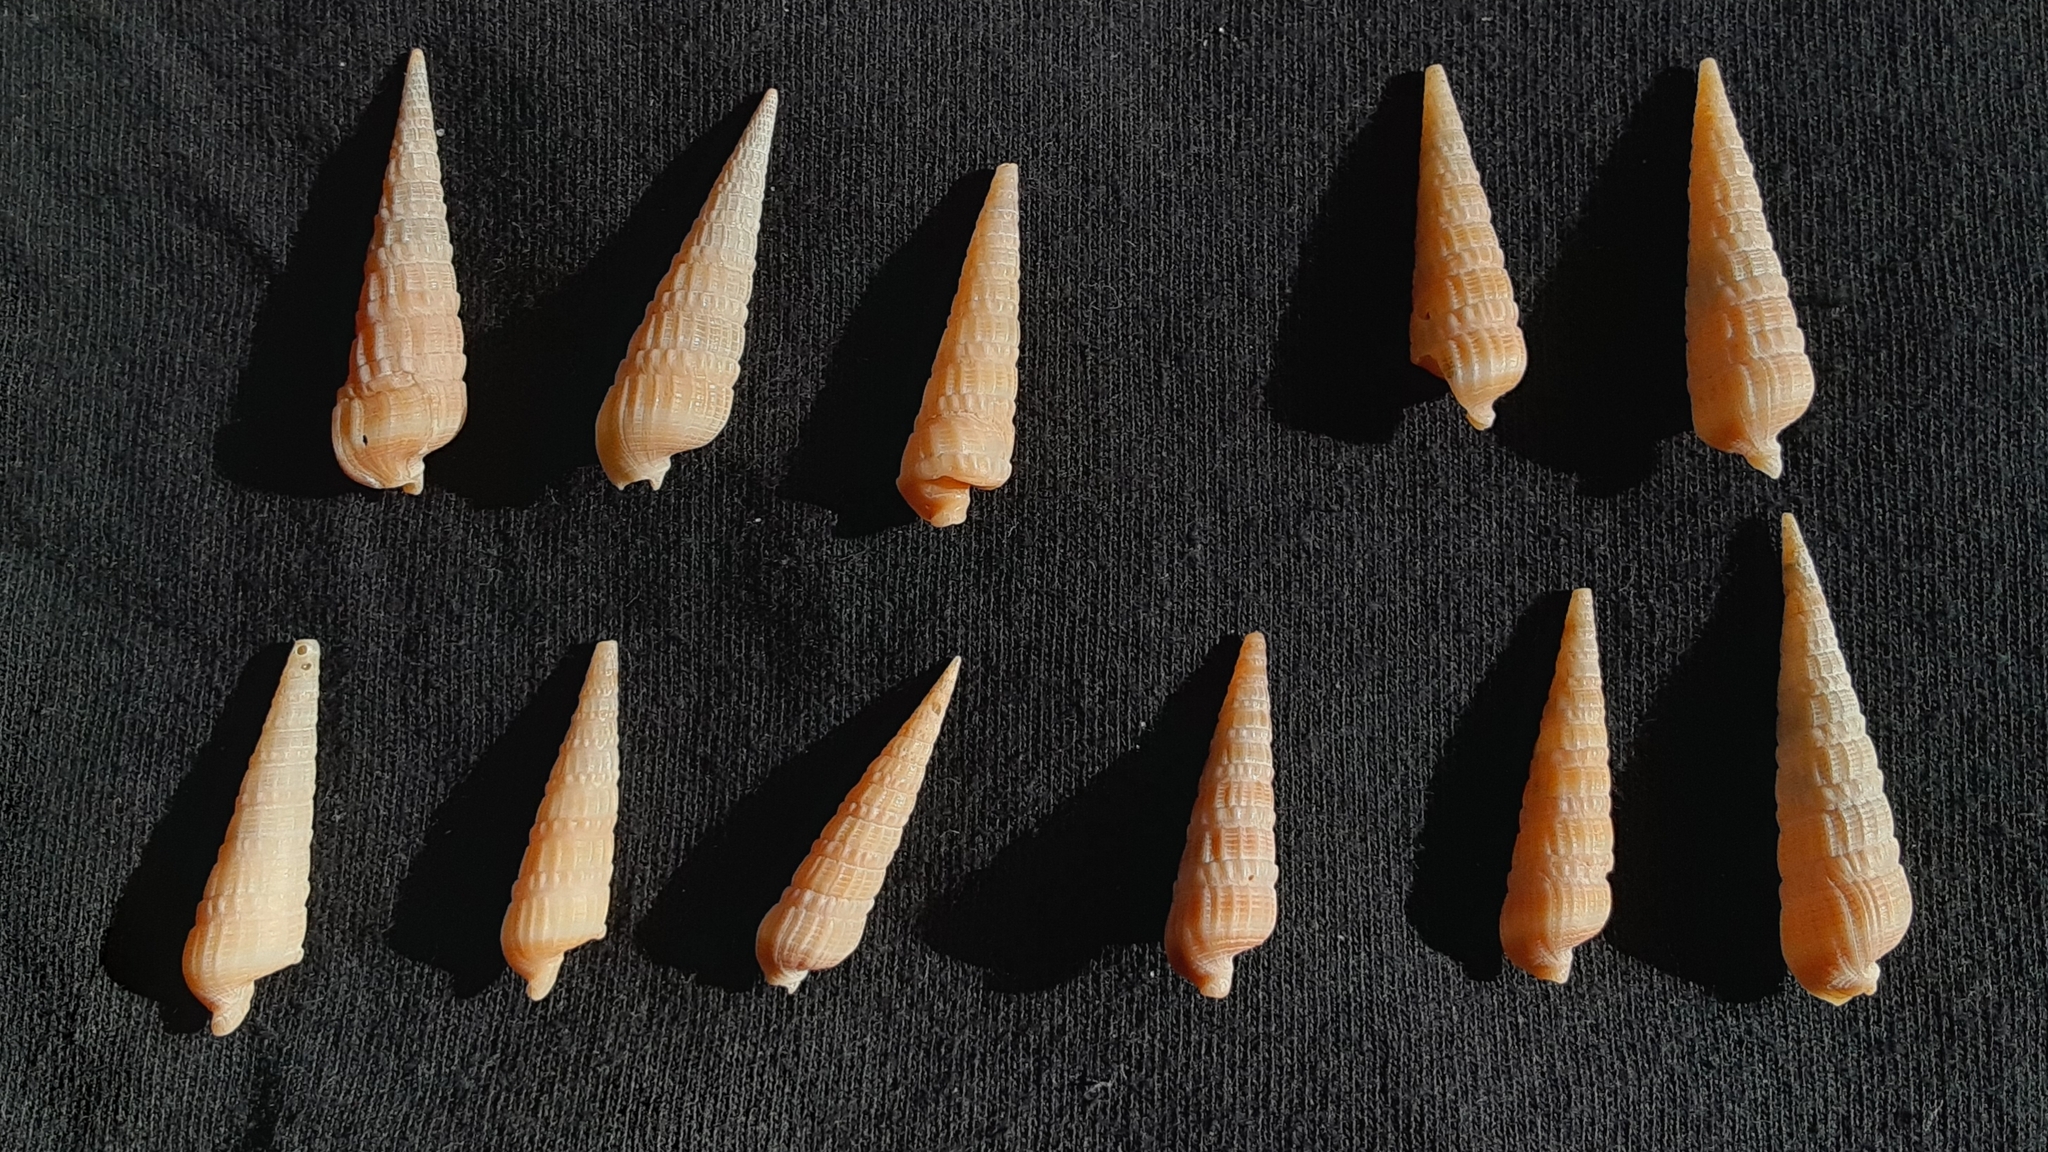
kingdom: Animalia
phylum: Mollusca
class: Gastropoda
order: Neogastropoda
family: Terebridae
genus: Neoterebra
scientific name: Neoterebra dislocata
